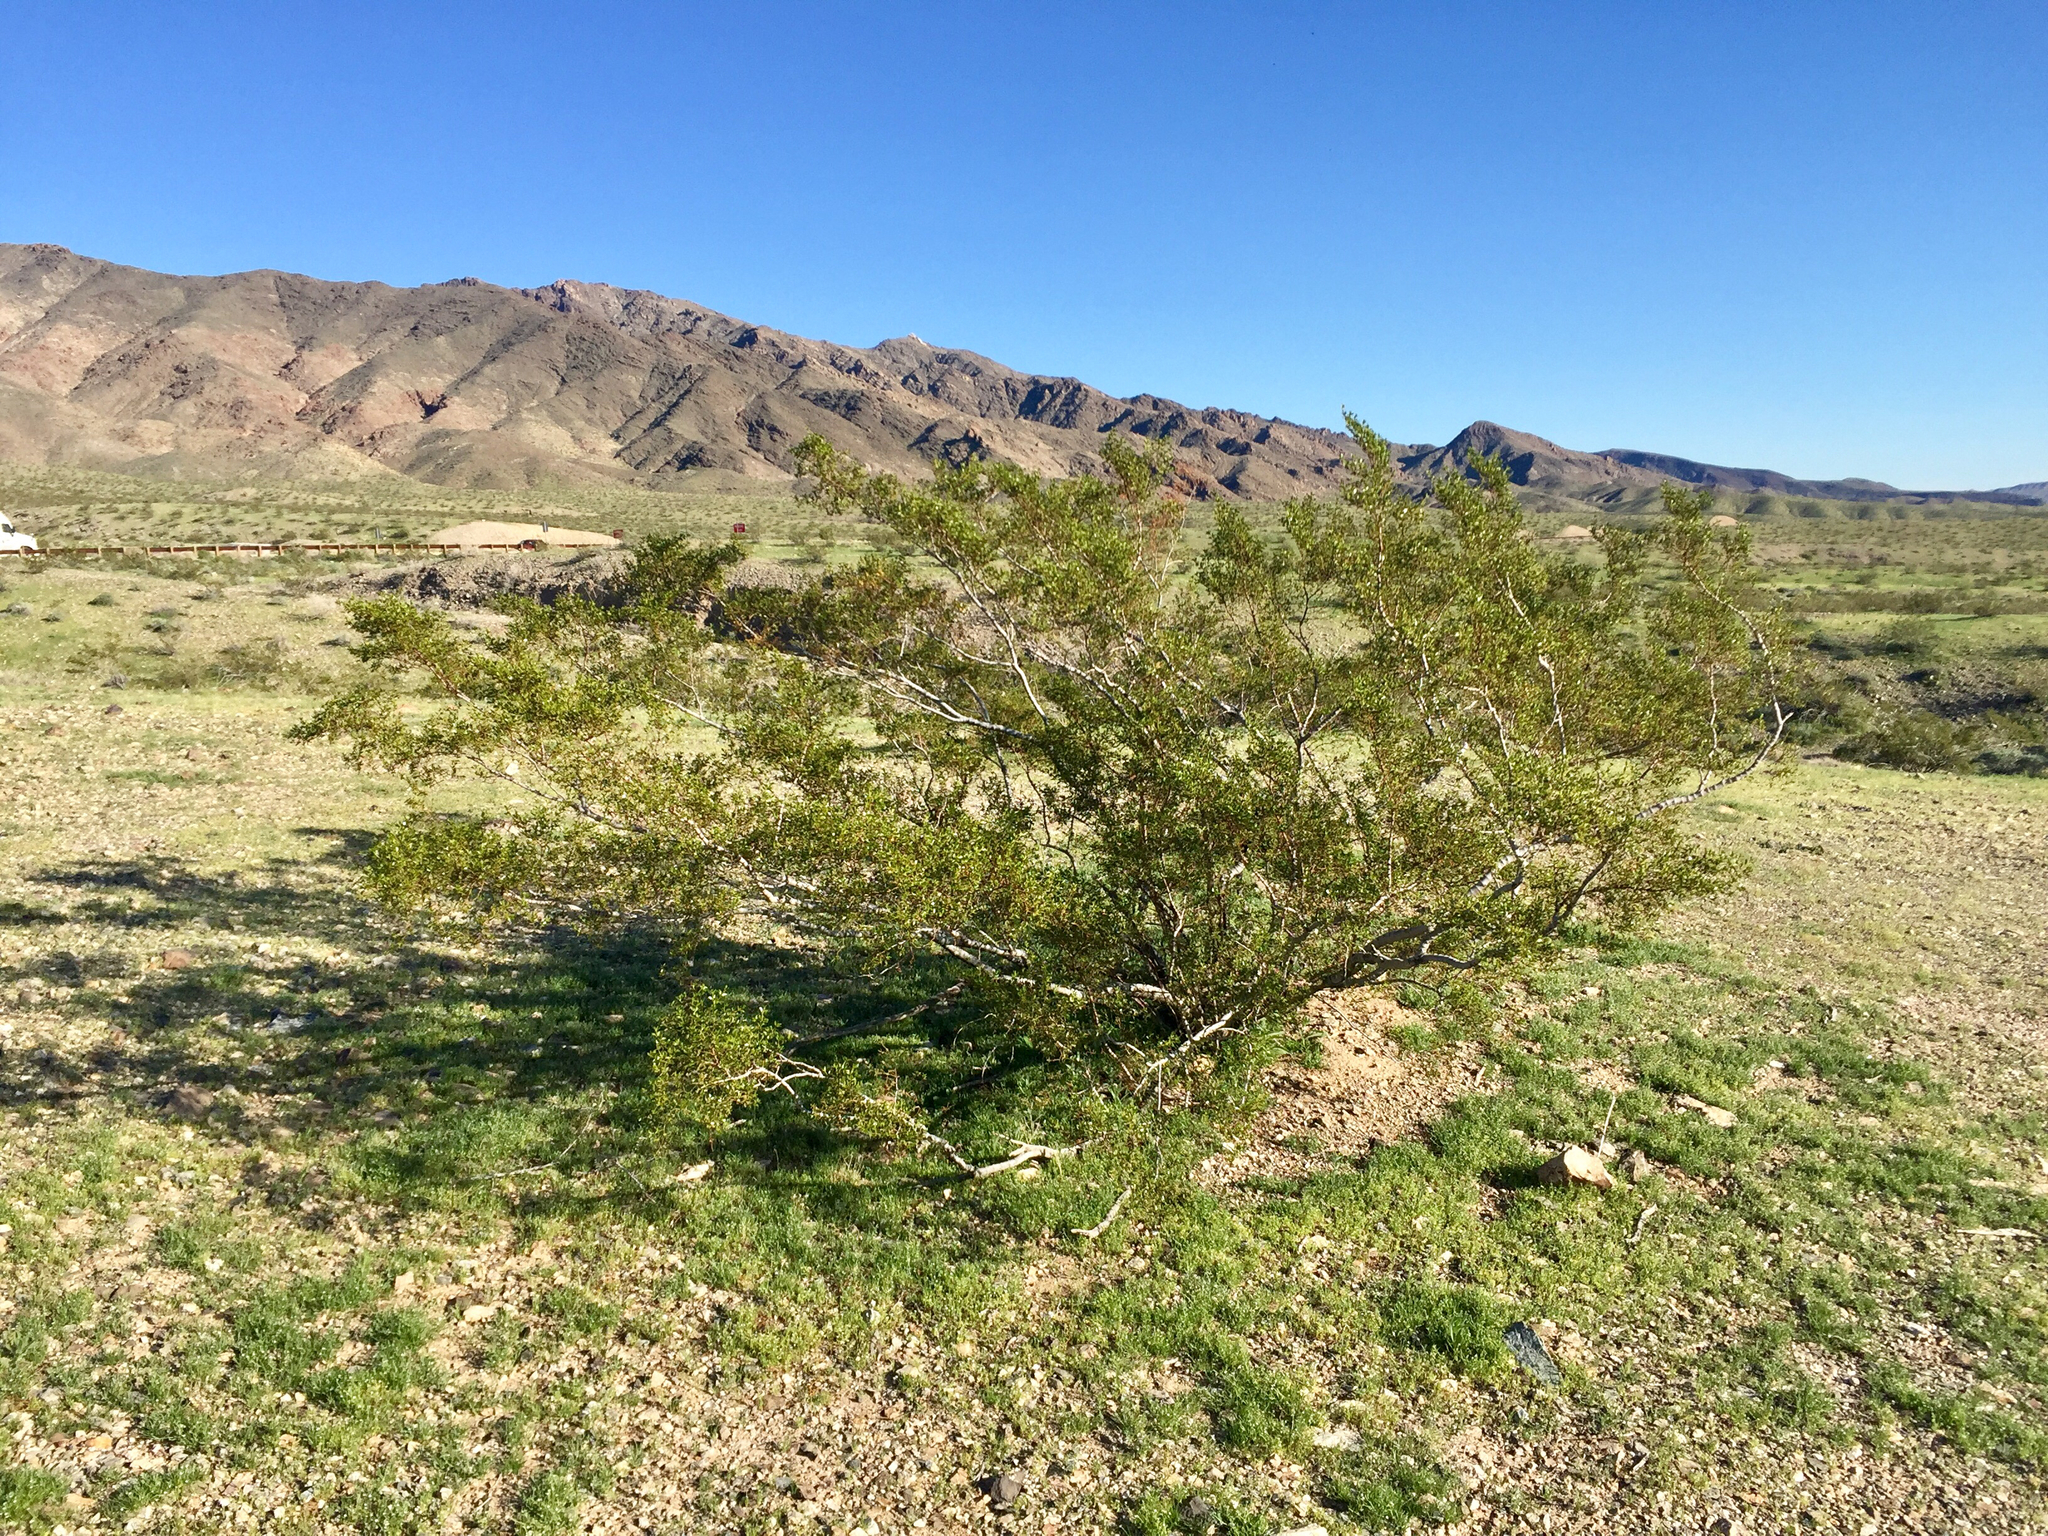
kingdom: Plantae
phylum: Tracheophyta
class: Magnoliopsida
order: Zygophyllales
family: Zygophyllaceae
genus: Larrea
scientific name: Larrea tridentata
